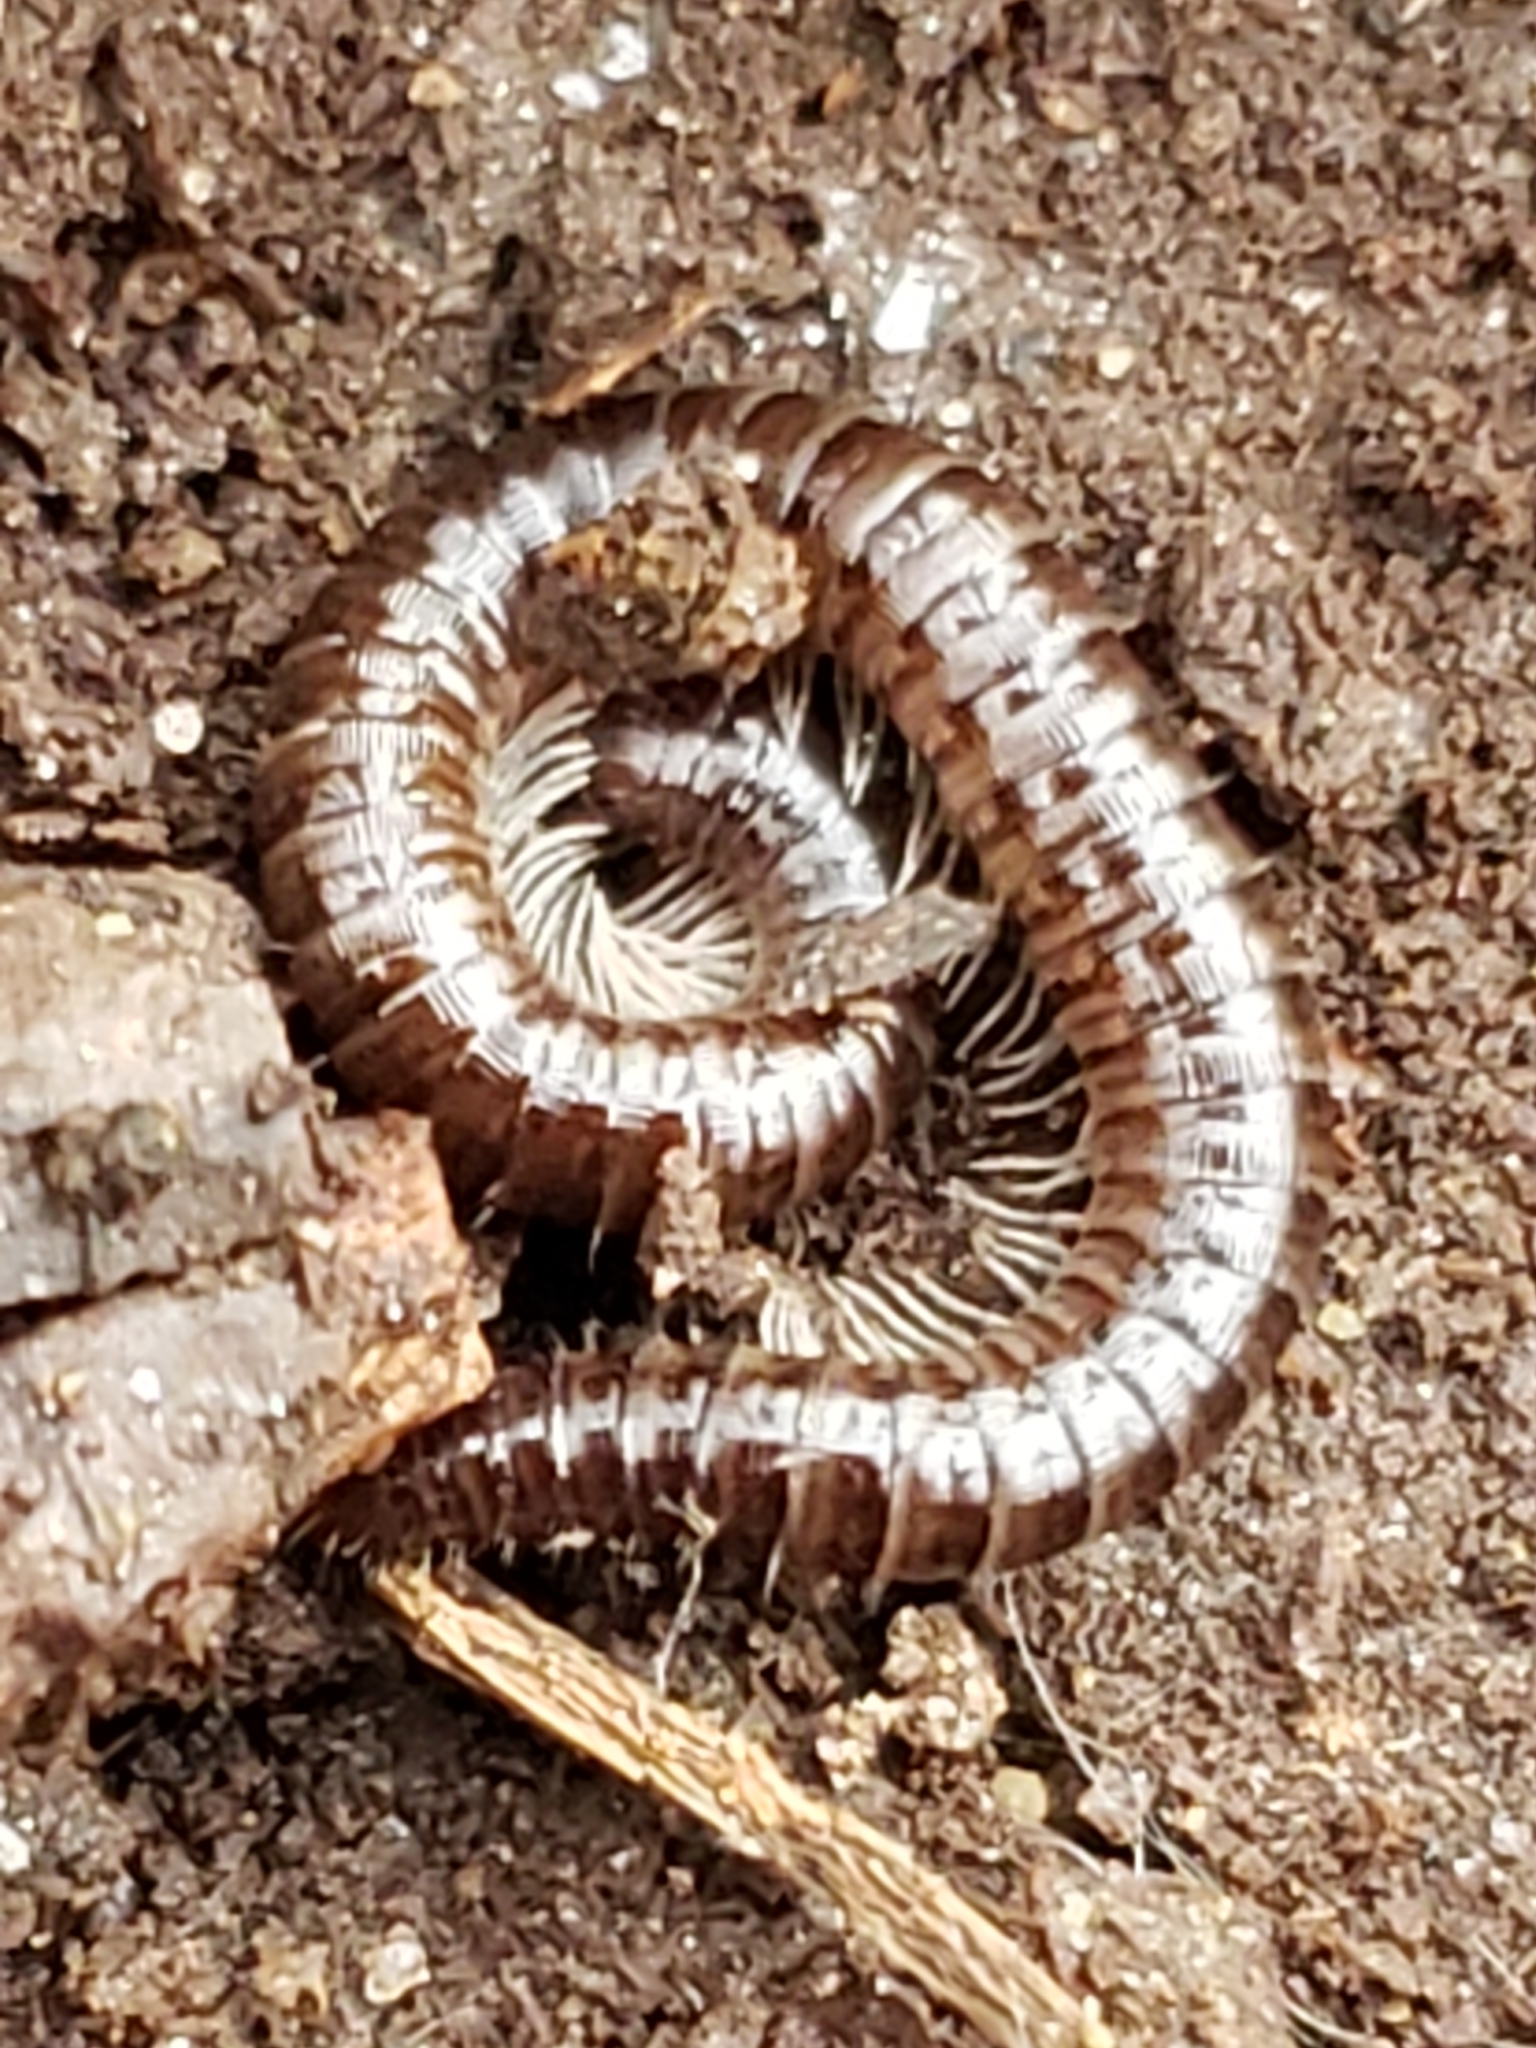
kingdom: Animalia
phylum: Arthropoda
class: Diplopoda
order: Julida
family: Julidae
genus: Ophyiulus
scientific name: Ophyiulus pilosus
